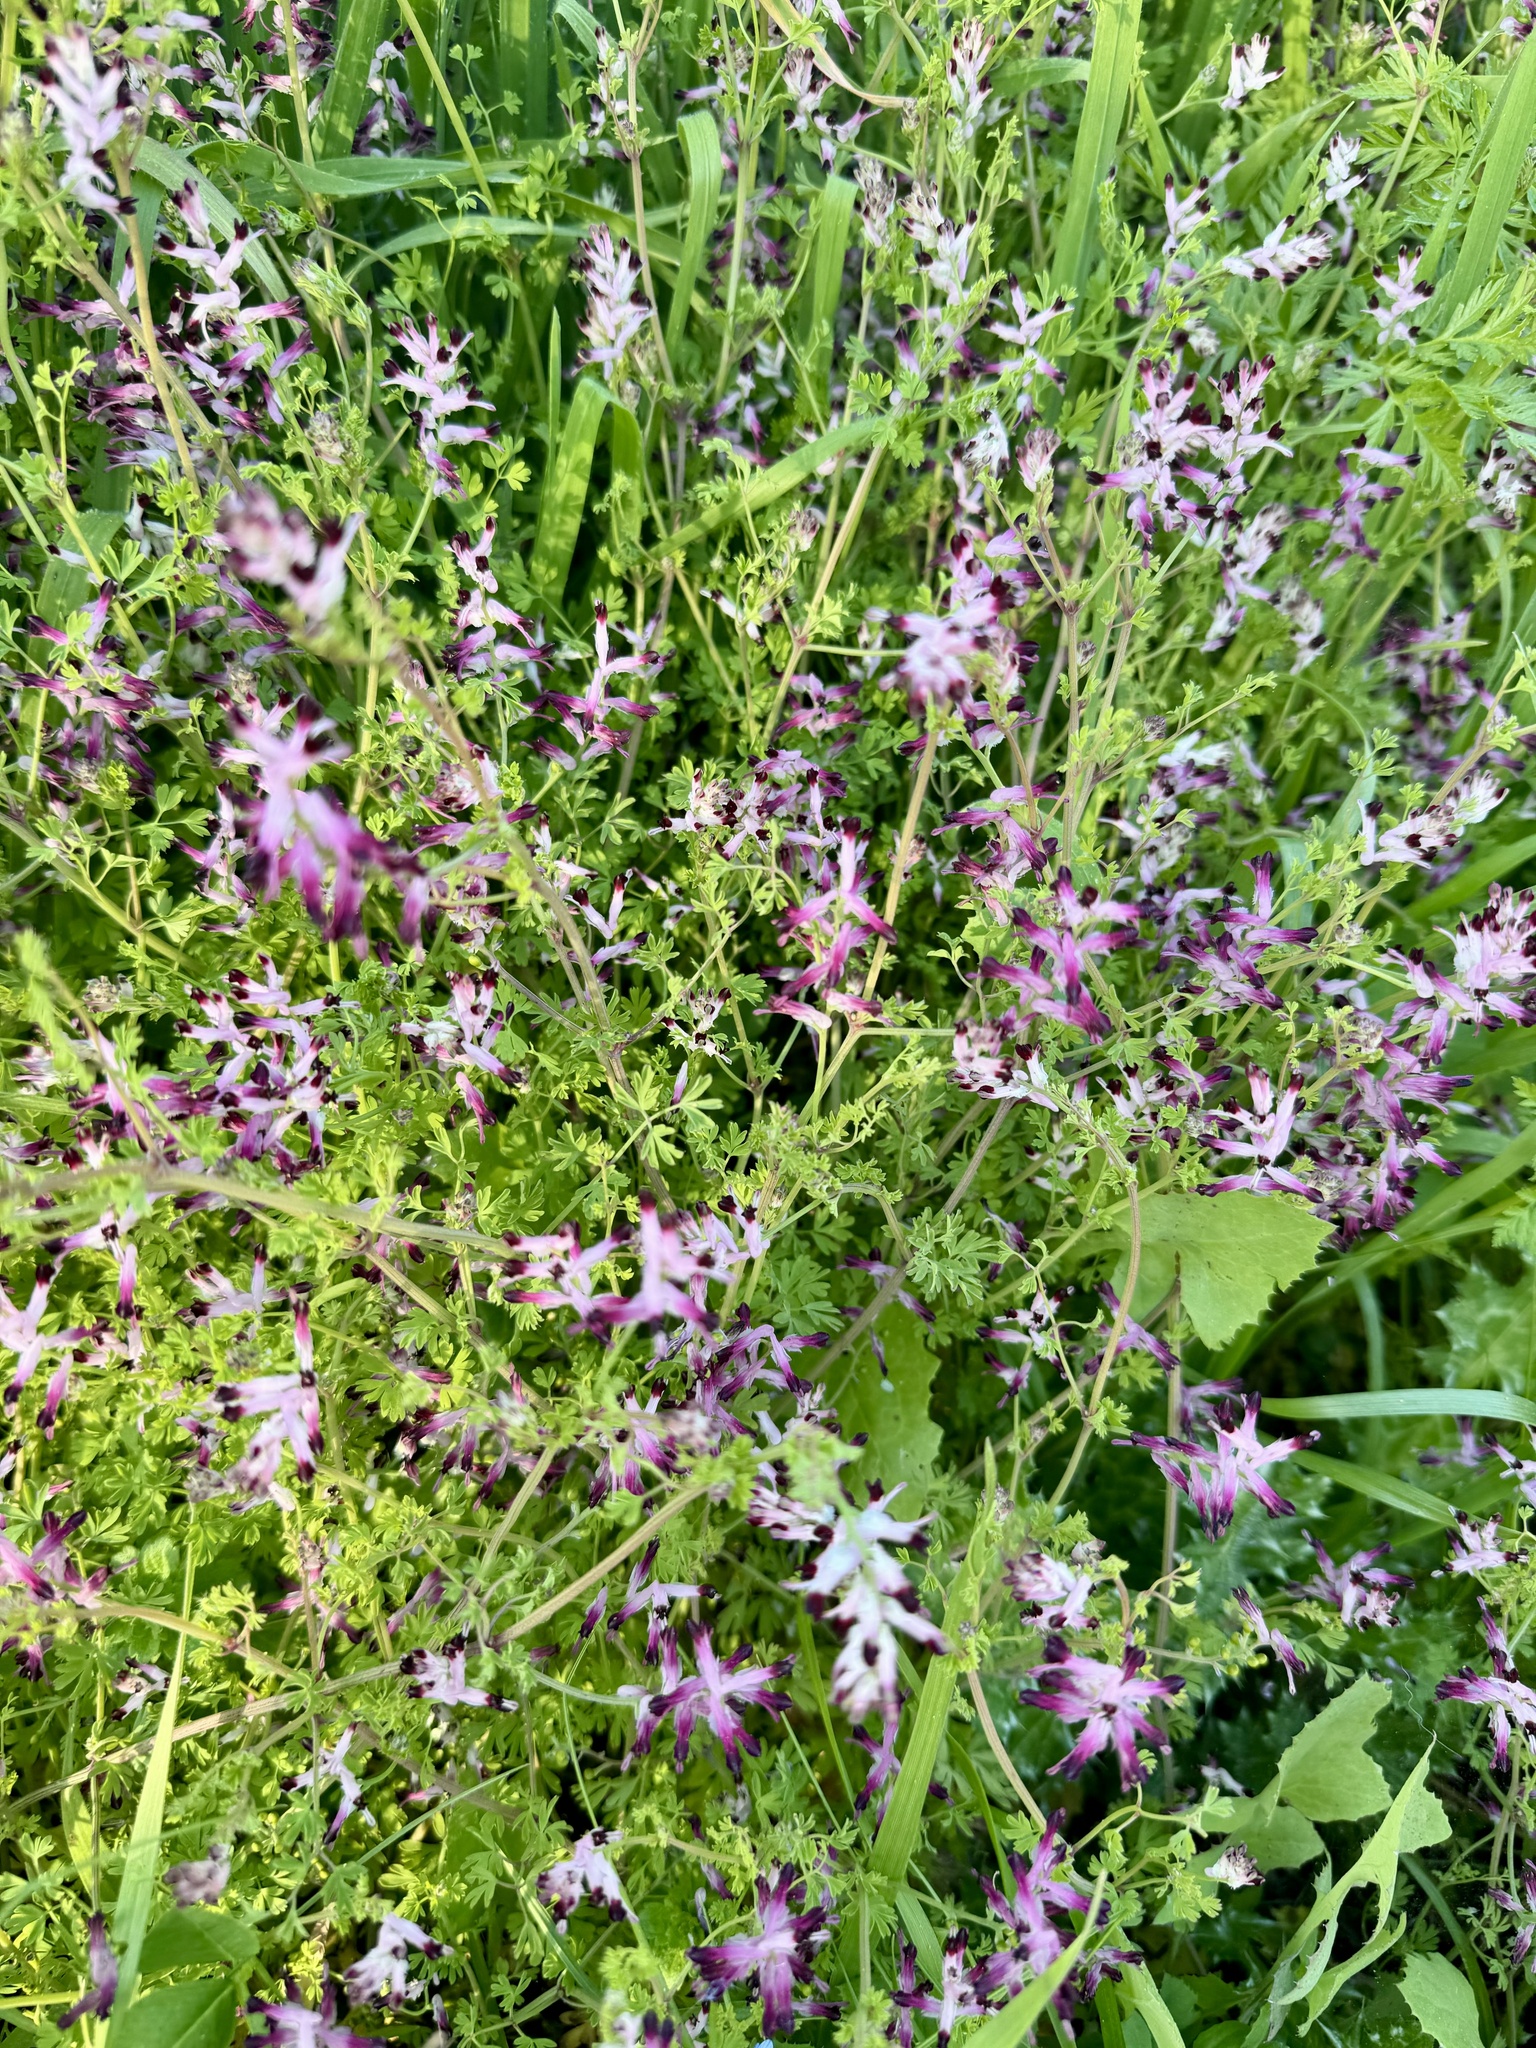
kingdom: Plantae
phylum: Tracheophyta
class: Magnoliopsida
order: Ranunculales
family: Papaveraceae
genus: Fumaria
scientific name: Fumaria muralis
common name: Common ramping-fumitory
